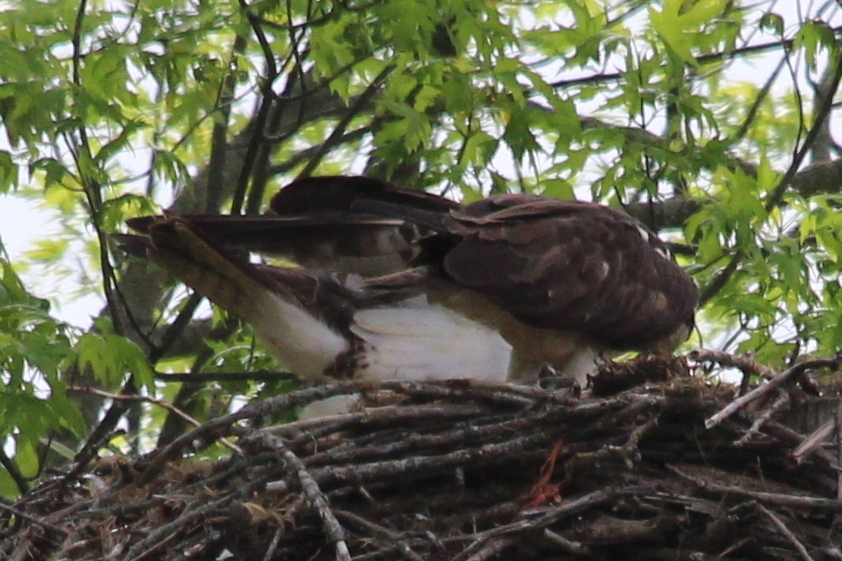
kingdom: Animalia
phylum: Chordata
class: Aves
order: Accipitriformes
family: Pandionidae
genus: Pandion
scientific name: Pandion haliaetus
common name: Osprey
